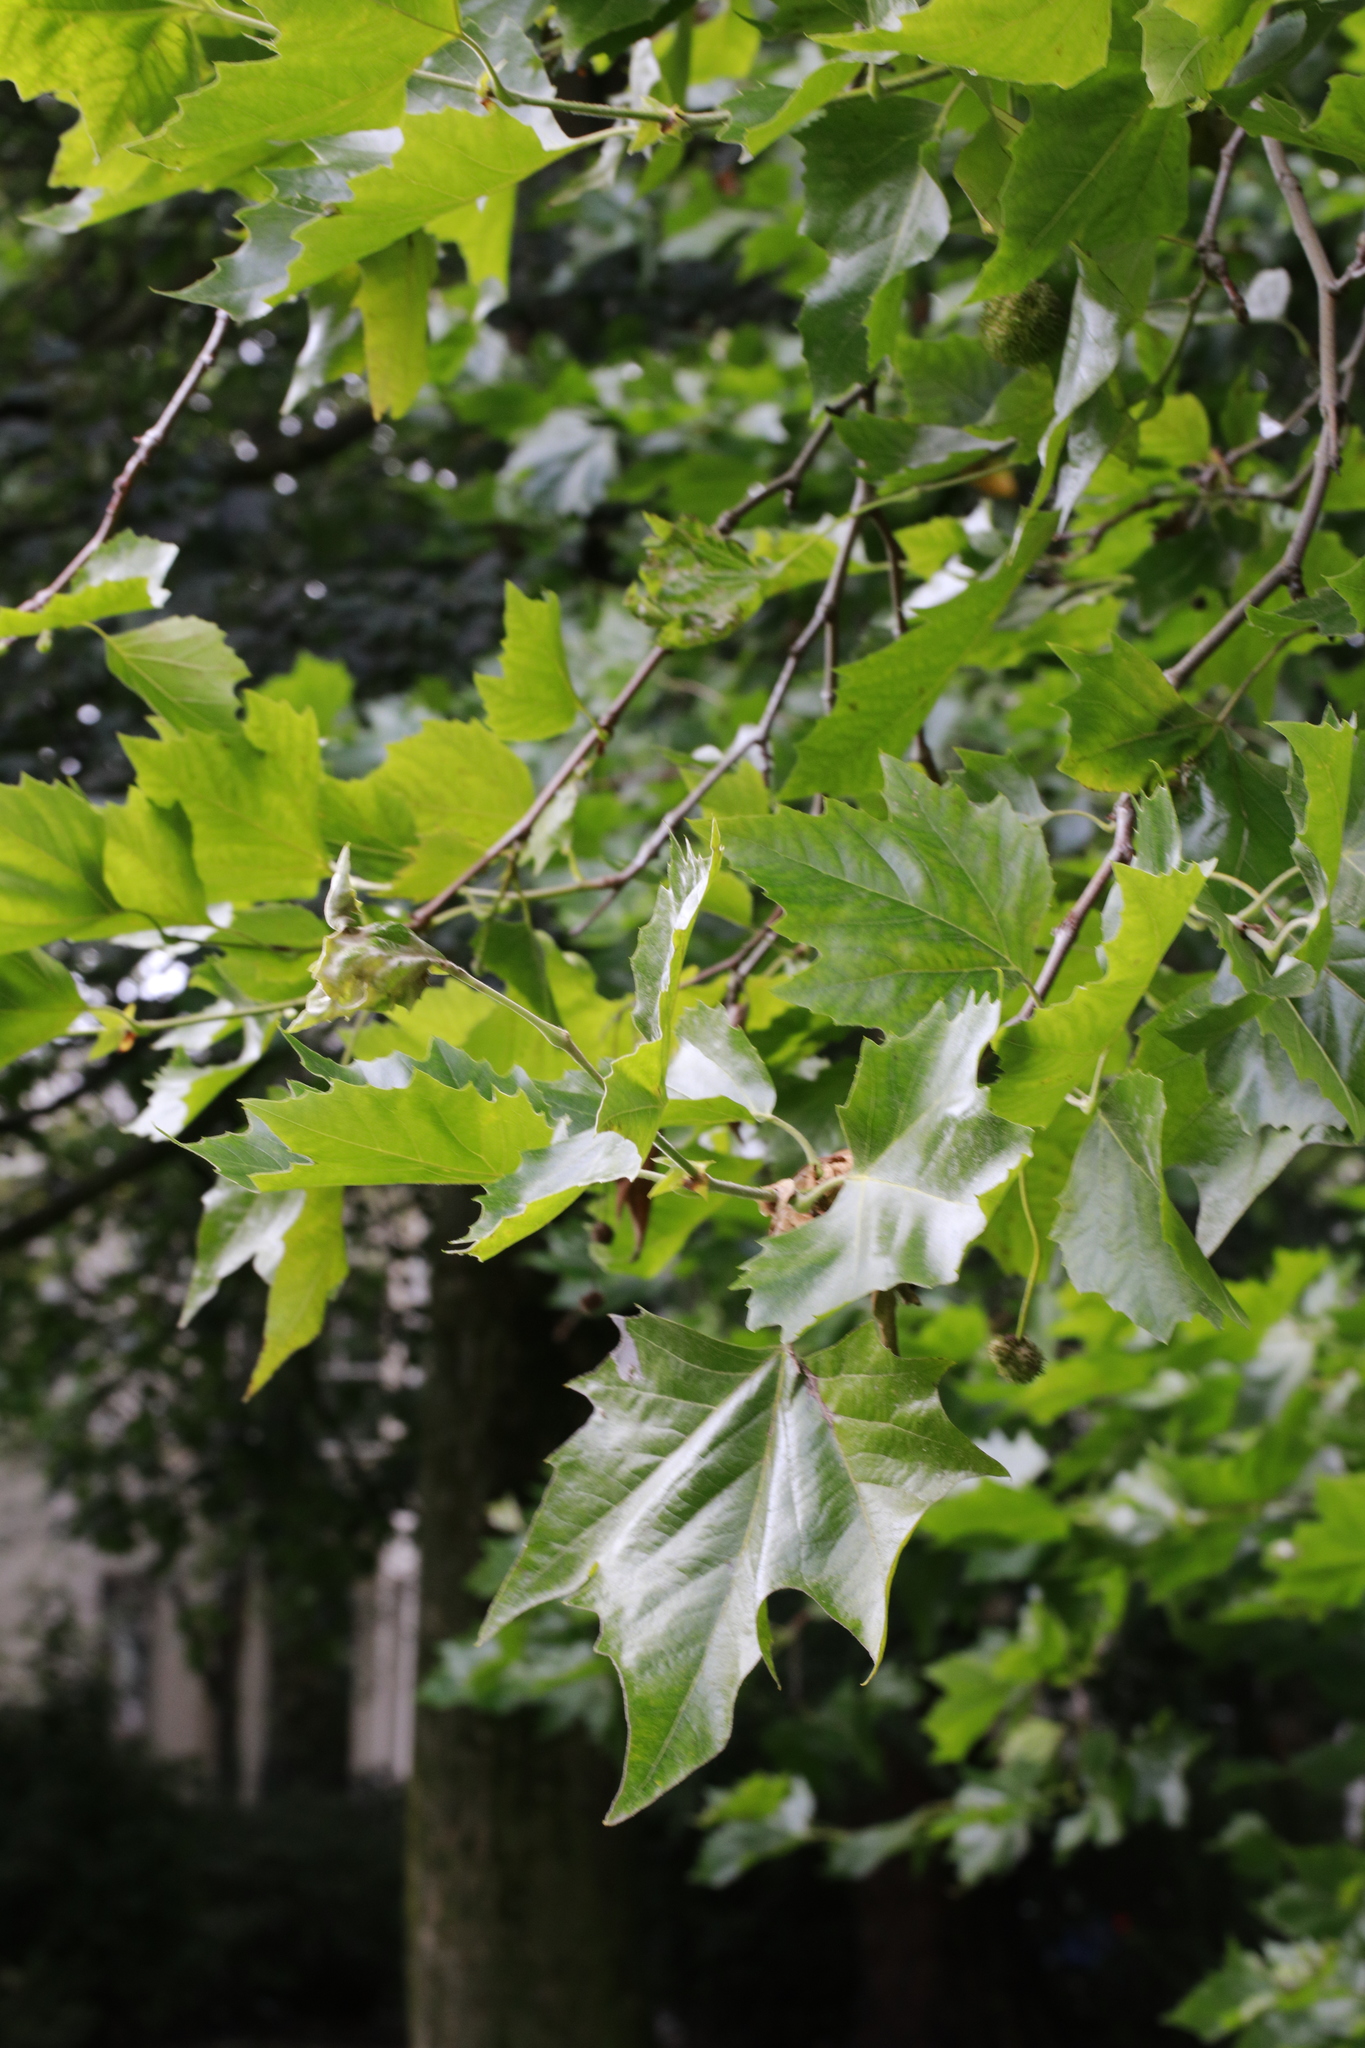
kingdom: Plantae
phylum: Tracheophyta
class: Magnoliopsida
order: Proteales
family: Platanaceae
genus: Platanus
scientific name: Platanus hispanica
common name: London plane
